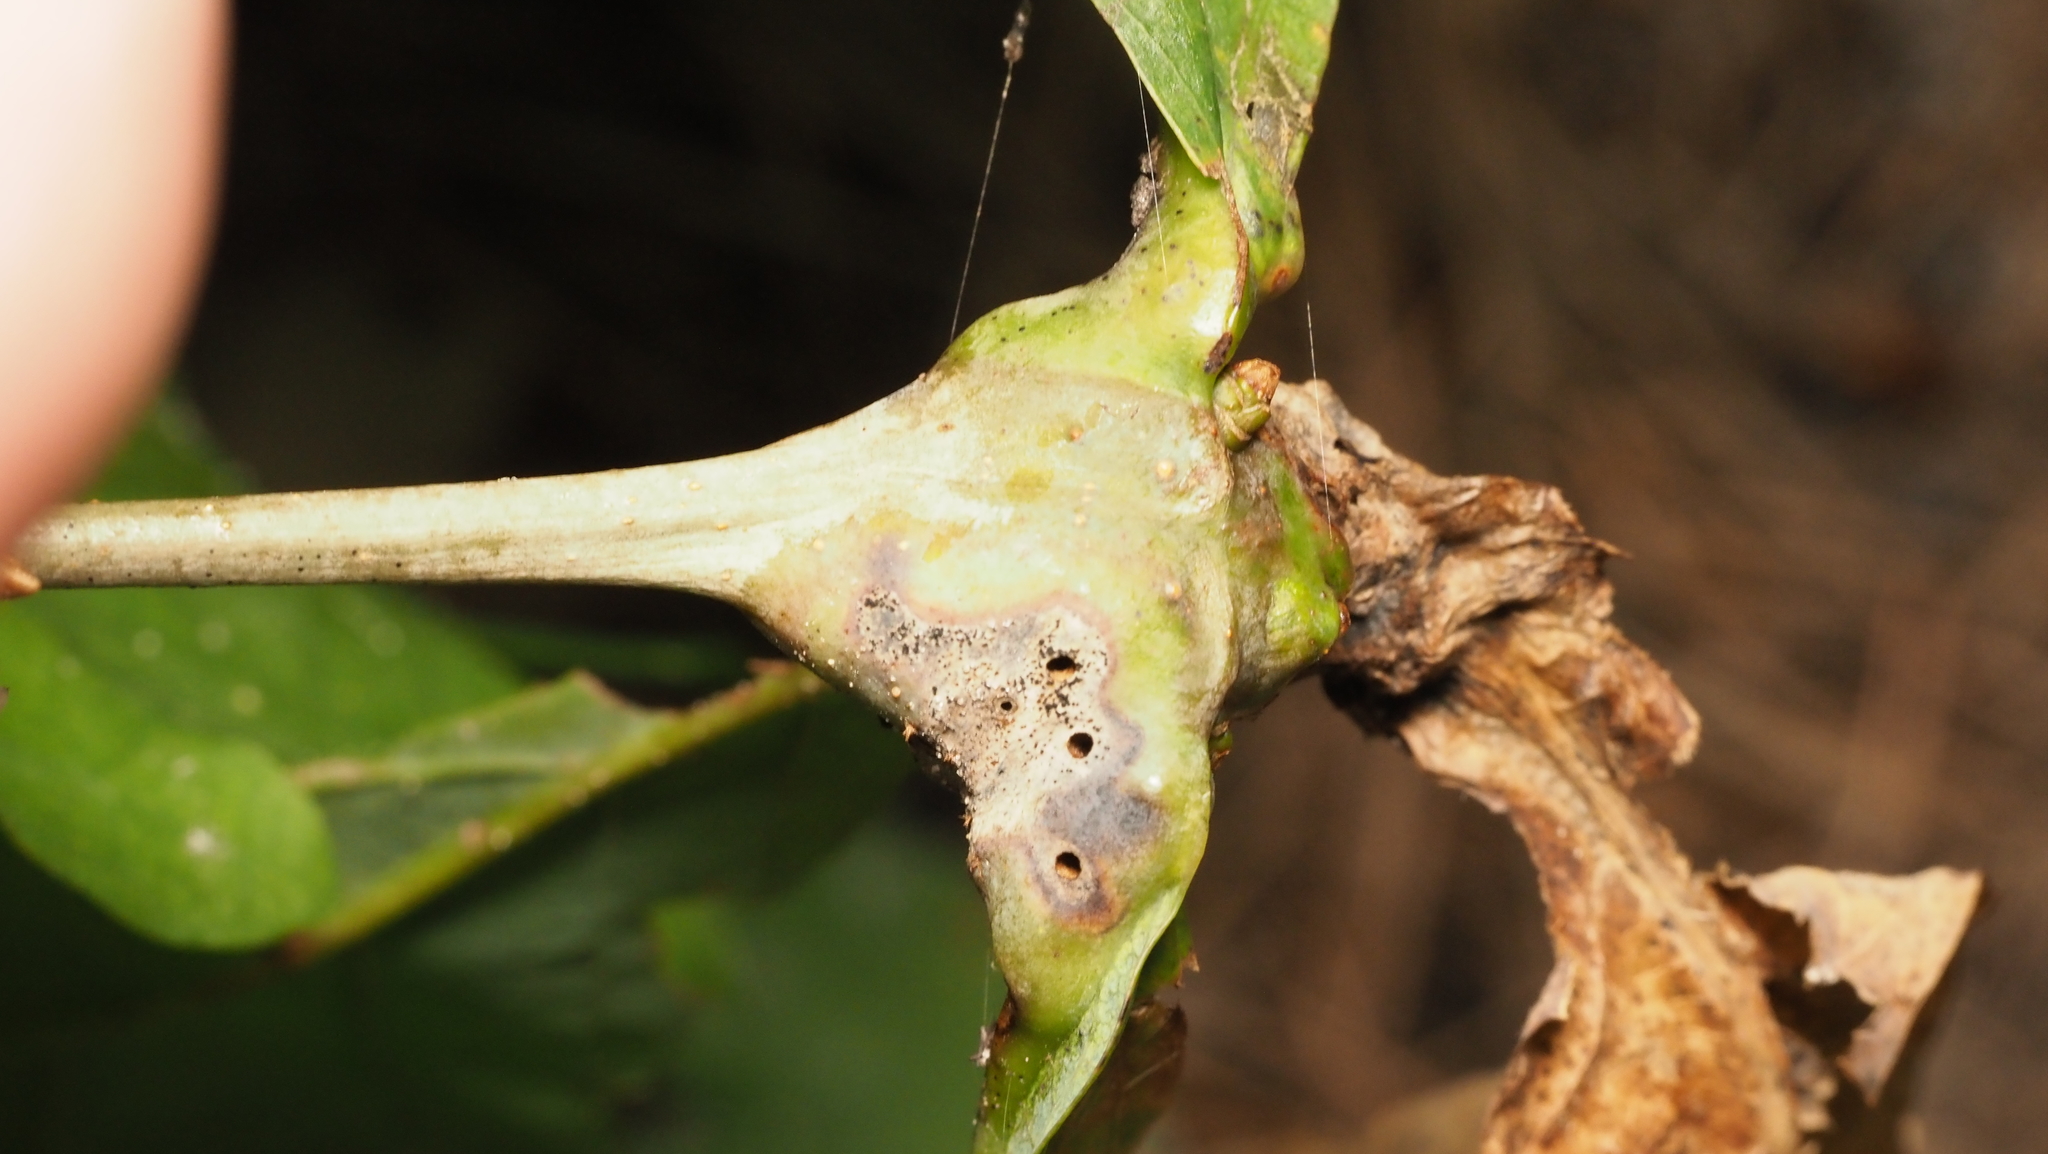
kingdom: Animalia
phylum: Arthropoda
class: Insecta
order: Hymenoptera
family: Cynipidae
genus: Neuroterus
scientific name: Neuroterus quercusbaccarum
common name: Common spangle gall
